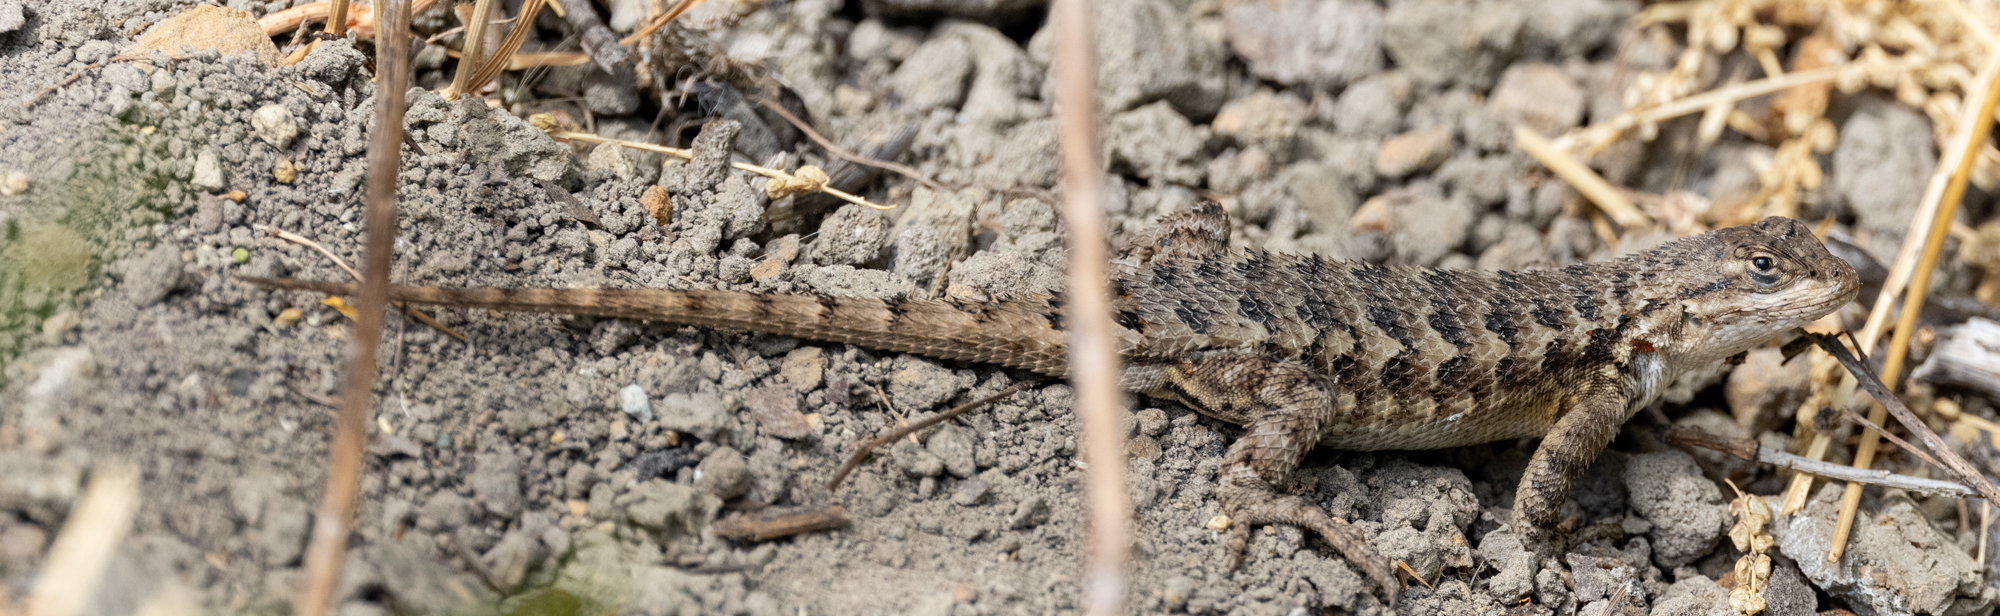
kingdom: Animalia
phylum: Chordata
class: Squamata
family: Phrynosomatidae
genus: Sceloporus
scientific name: Sceloporus occidentalis
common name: Western fence lizard
